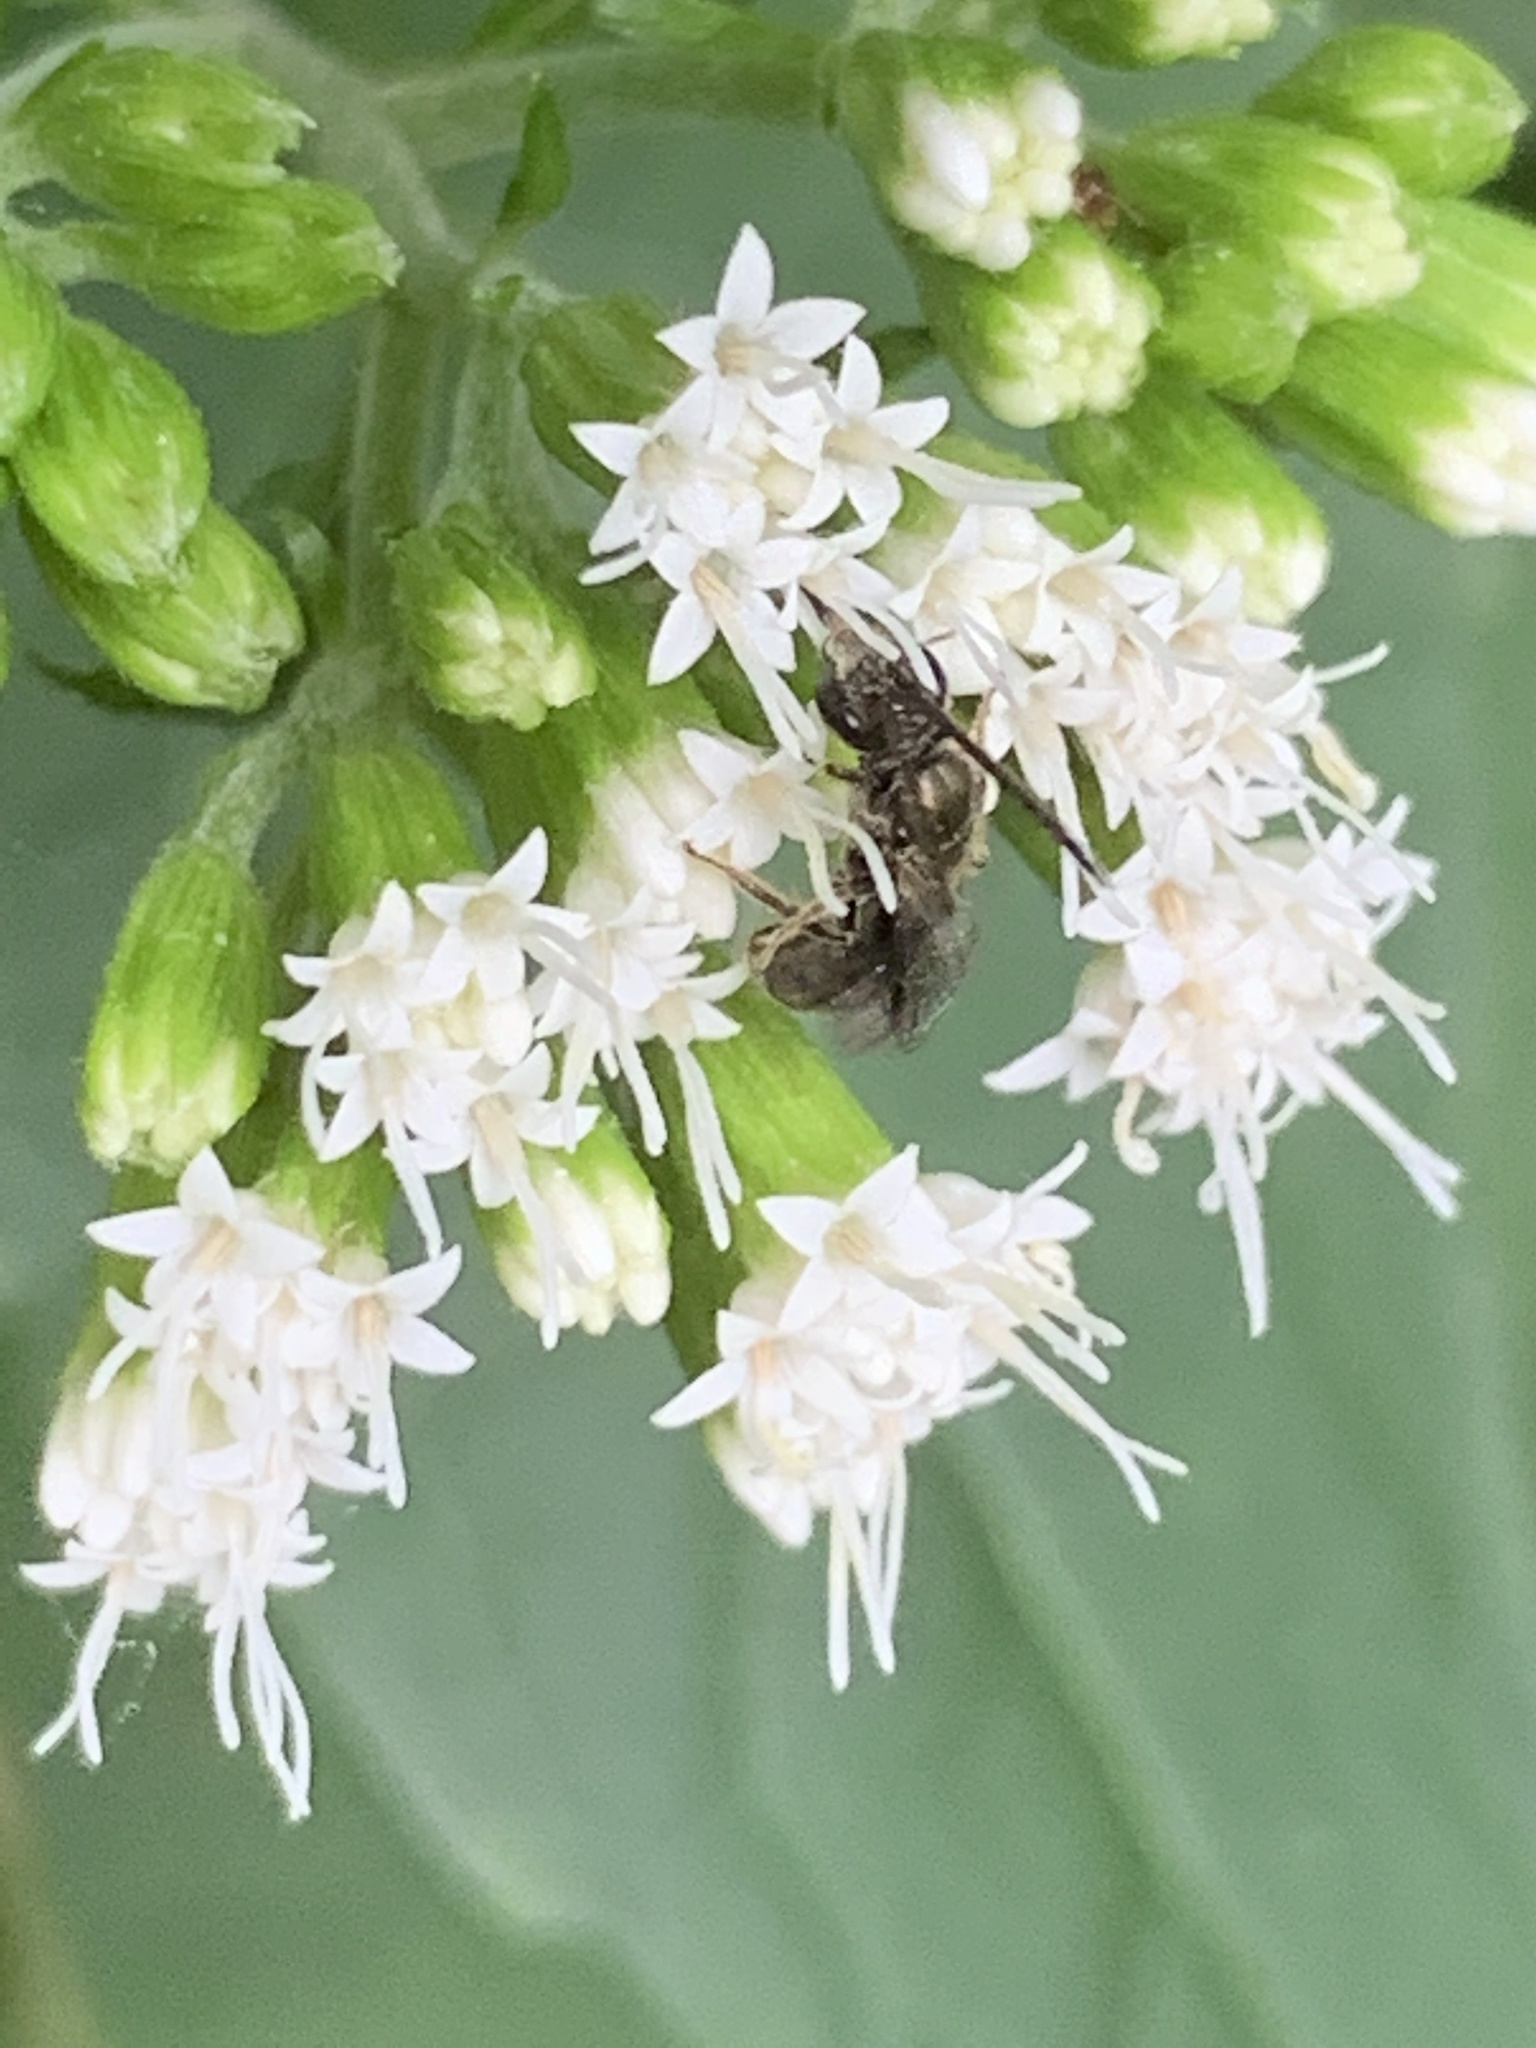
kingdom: Animalia
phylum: Arthropoda
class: Insecta
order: Hymenoptera
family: Halictidae
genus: Dialictus
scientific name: Dialictus
